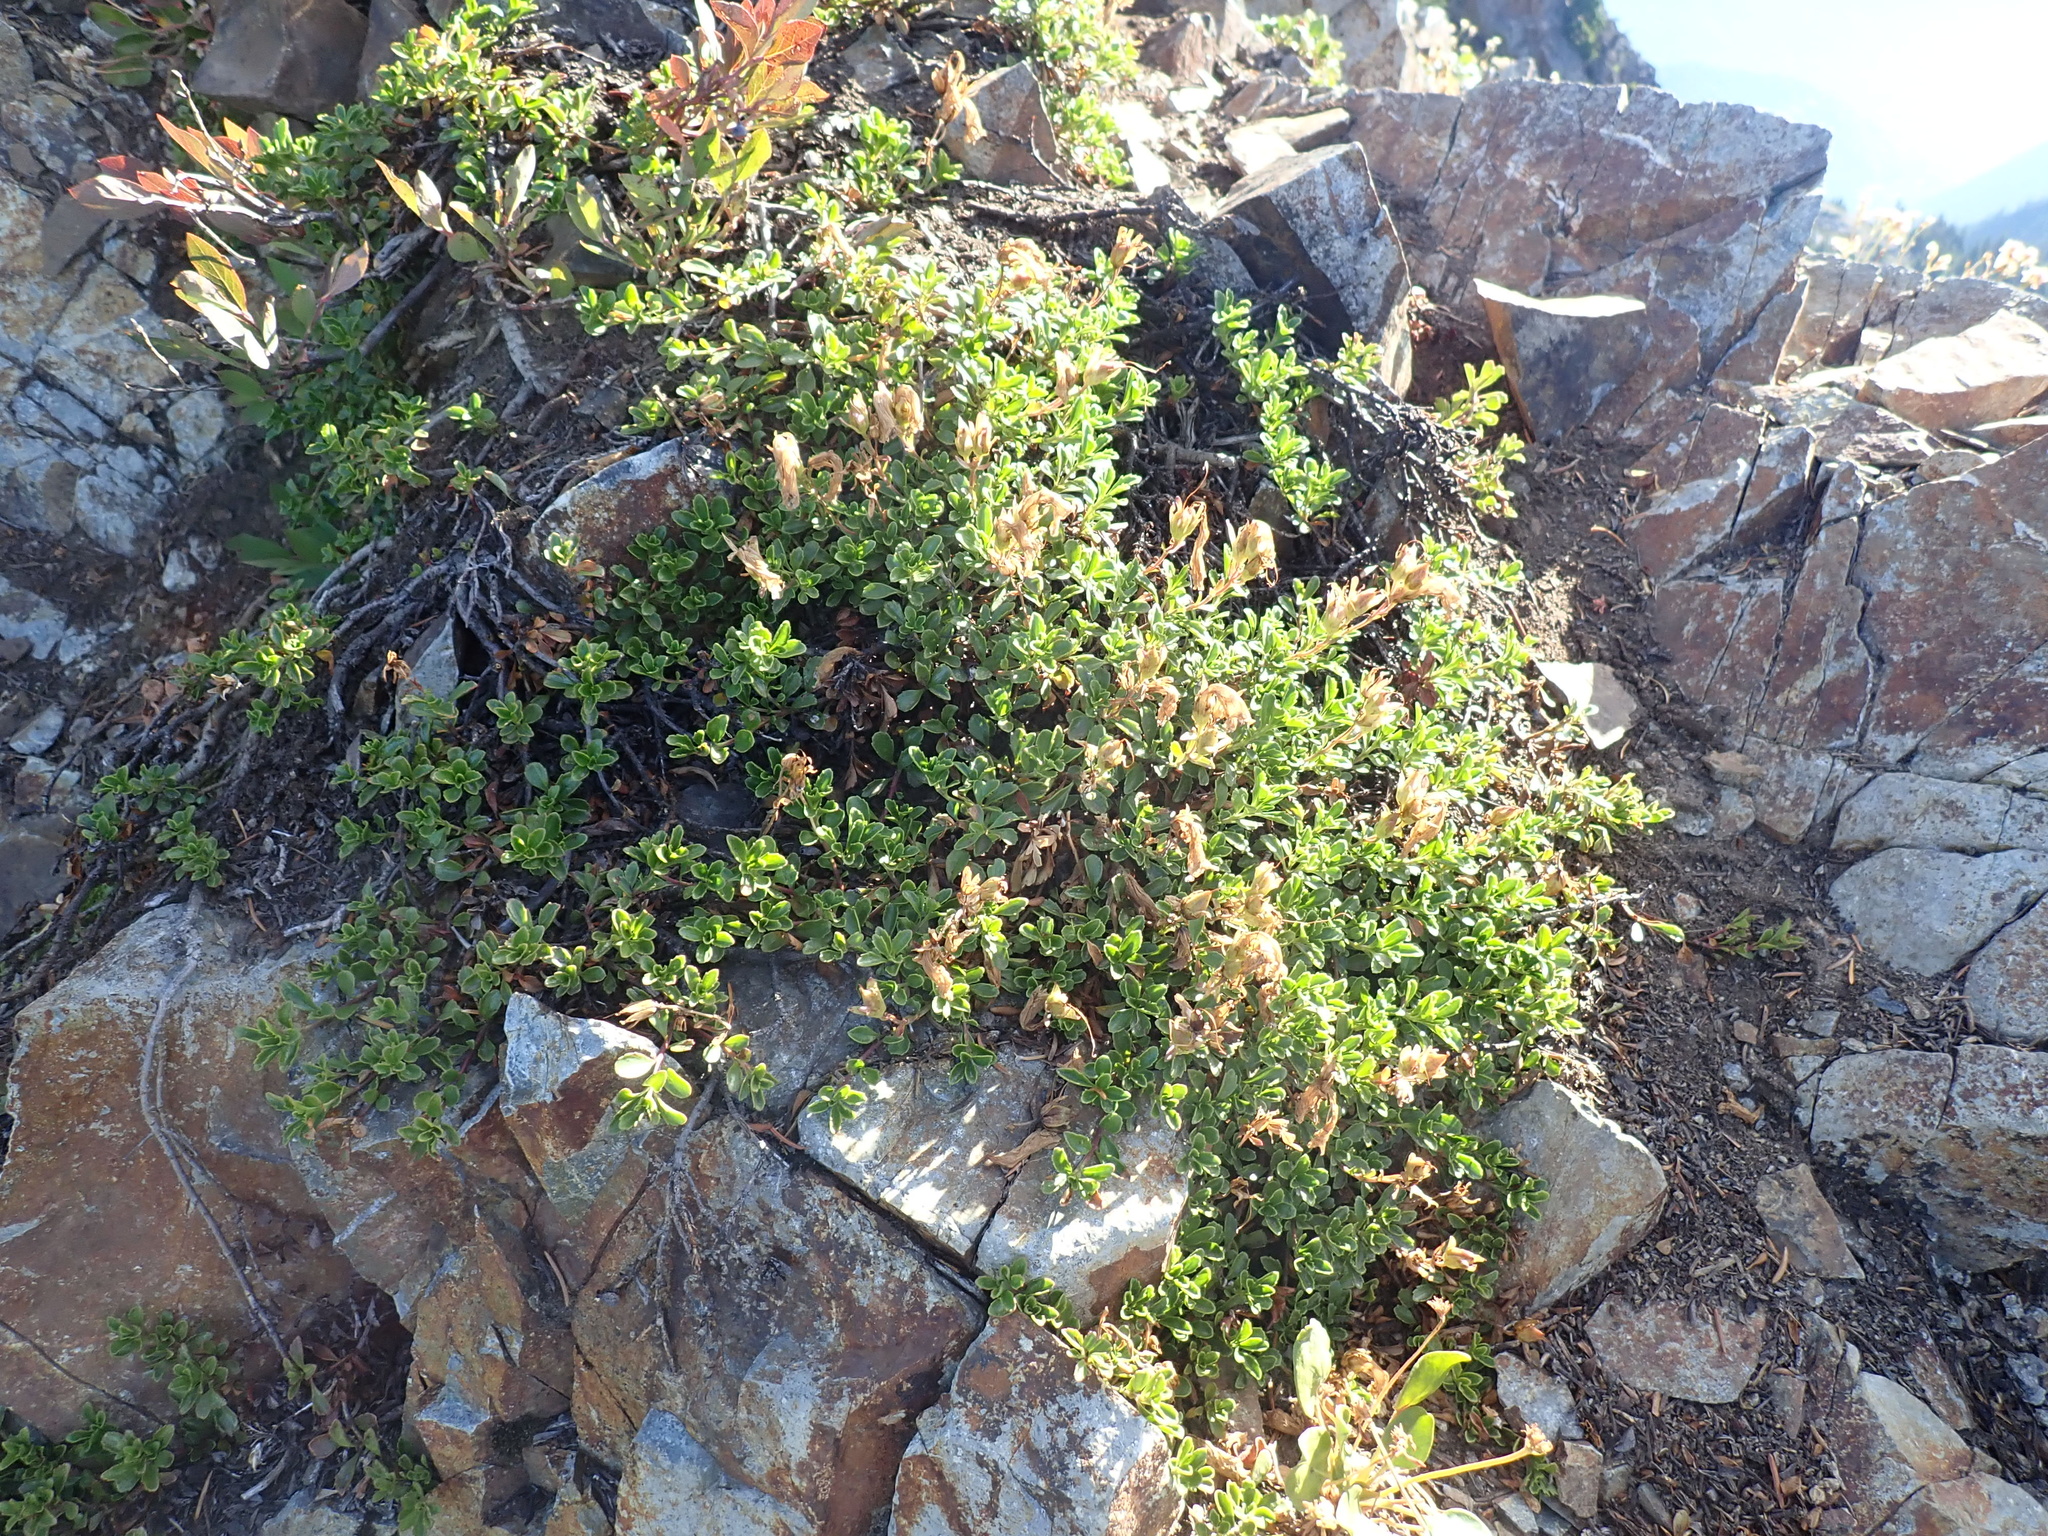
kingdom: Plantae
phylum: Tracheophyta
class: Magnoliopsida
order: Lamiales
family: Plantaginaceae
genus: Penstemon
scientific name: Penstemon davidsonii
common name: Davidson's penstemon
